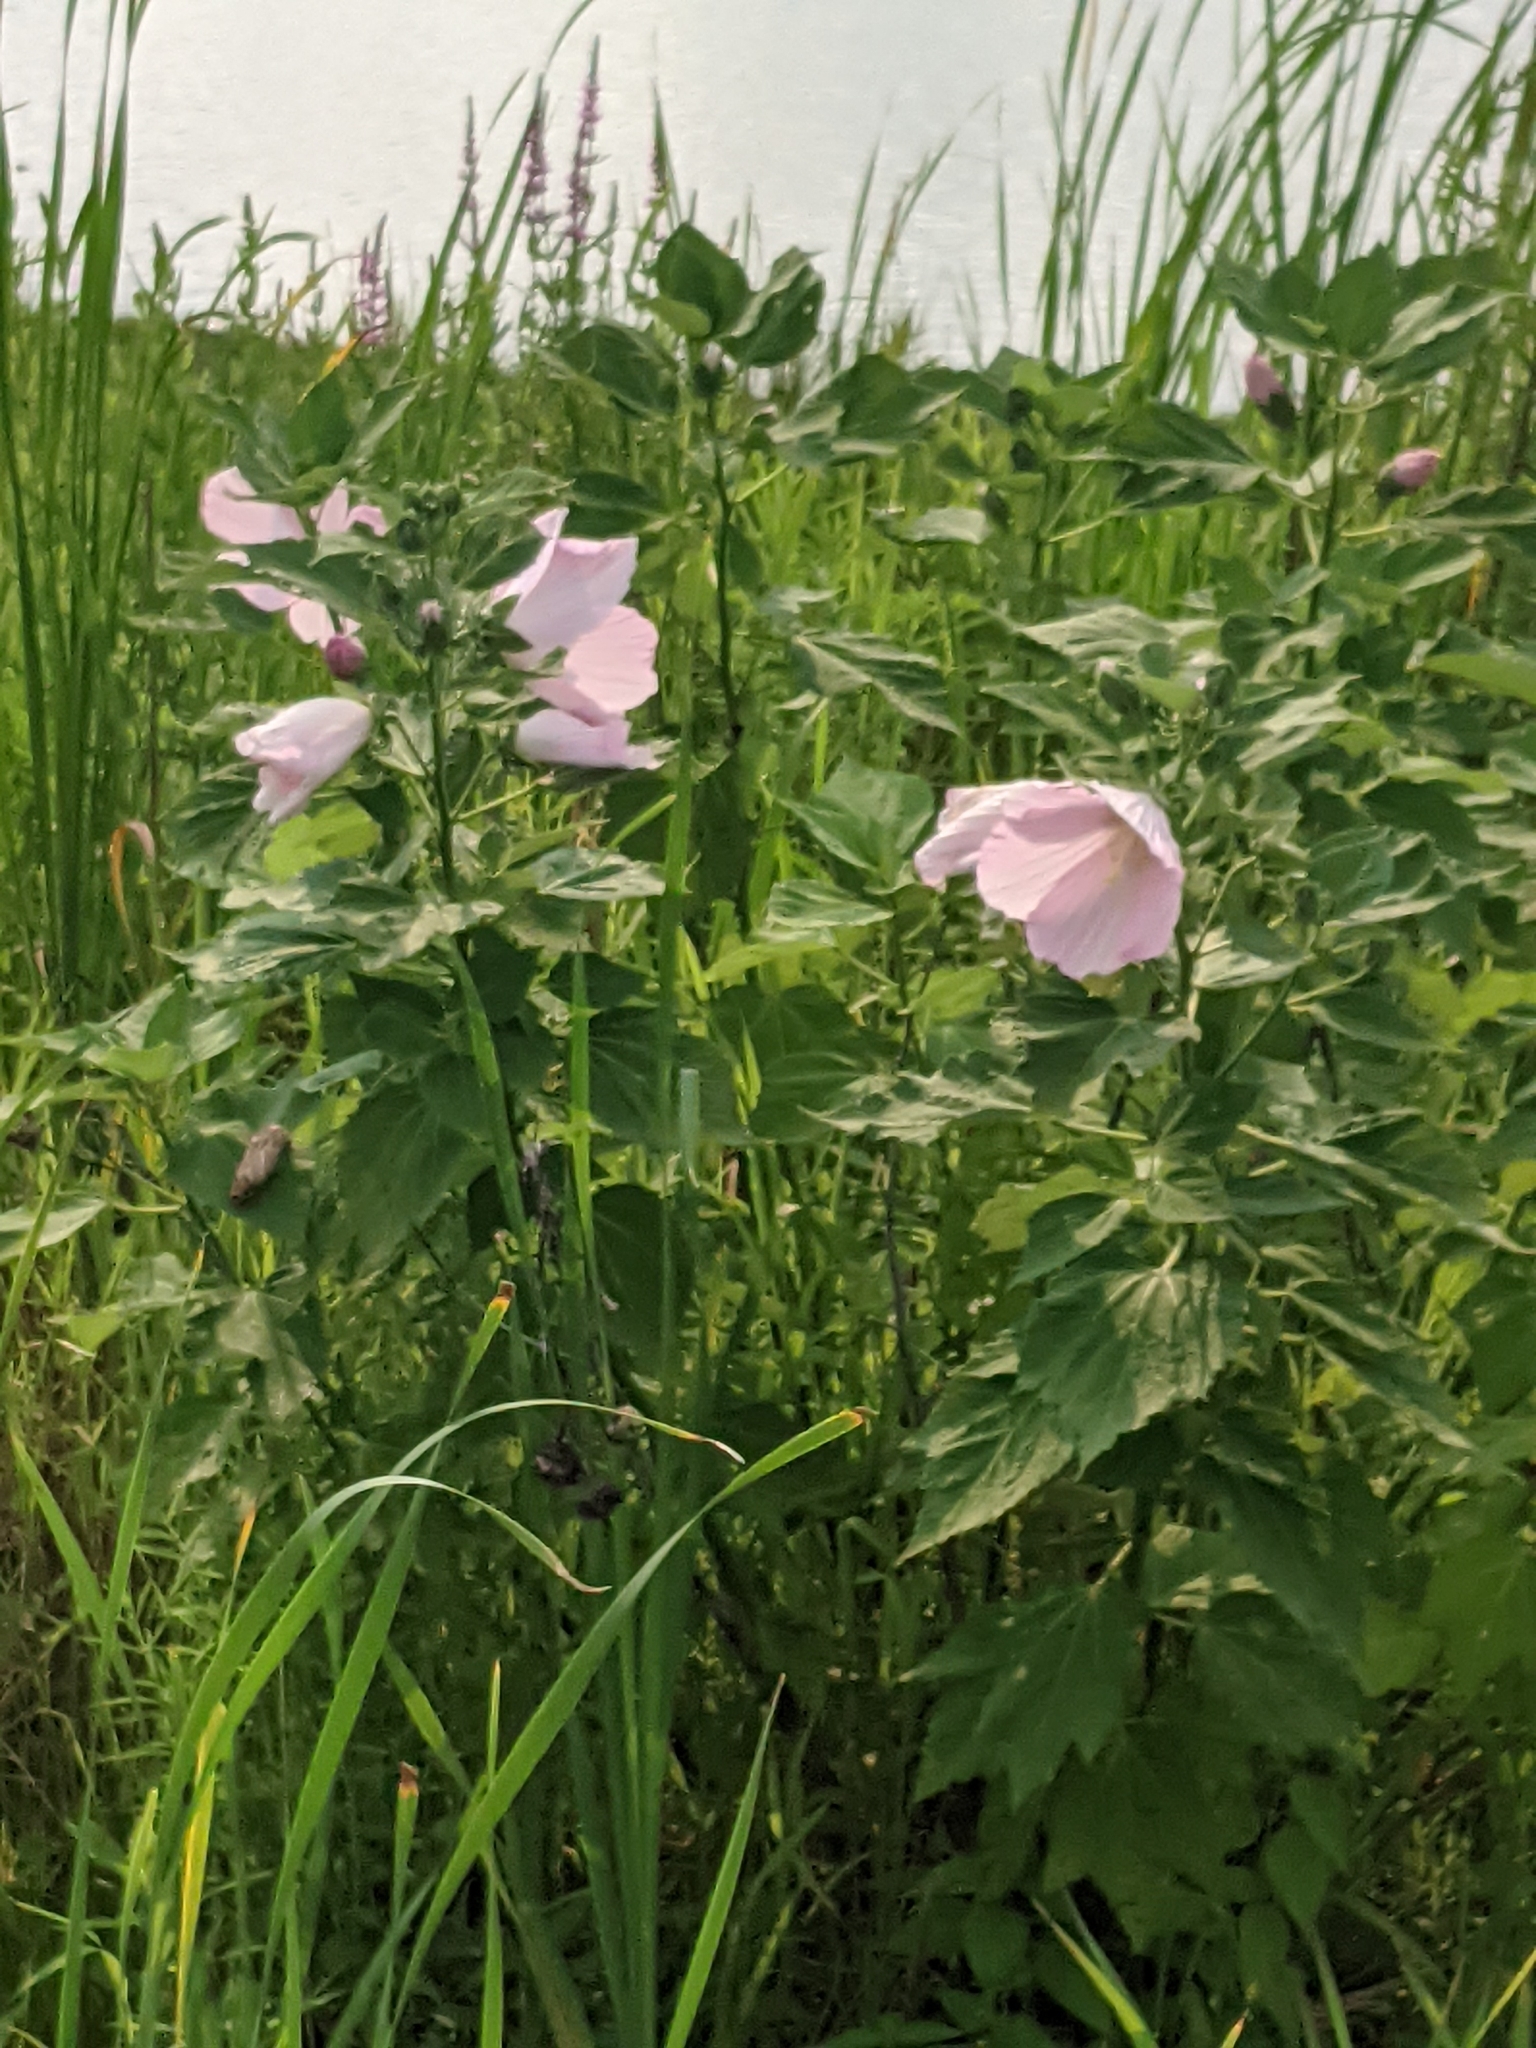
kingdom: Plantae
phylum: Tracheophyta
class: Magnoliopsida
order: Malvales
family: Malvaceae
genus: Hibiscus
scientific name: Hibiscus moscheutos
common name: Common rose-mallow
